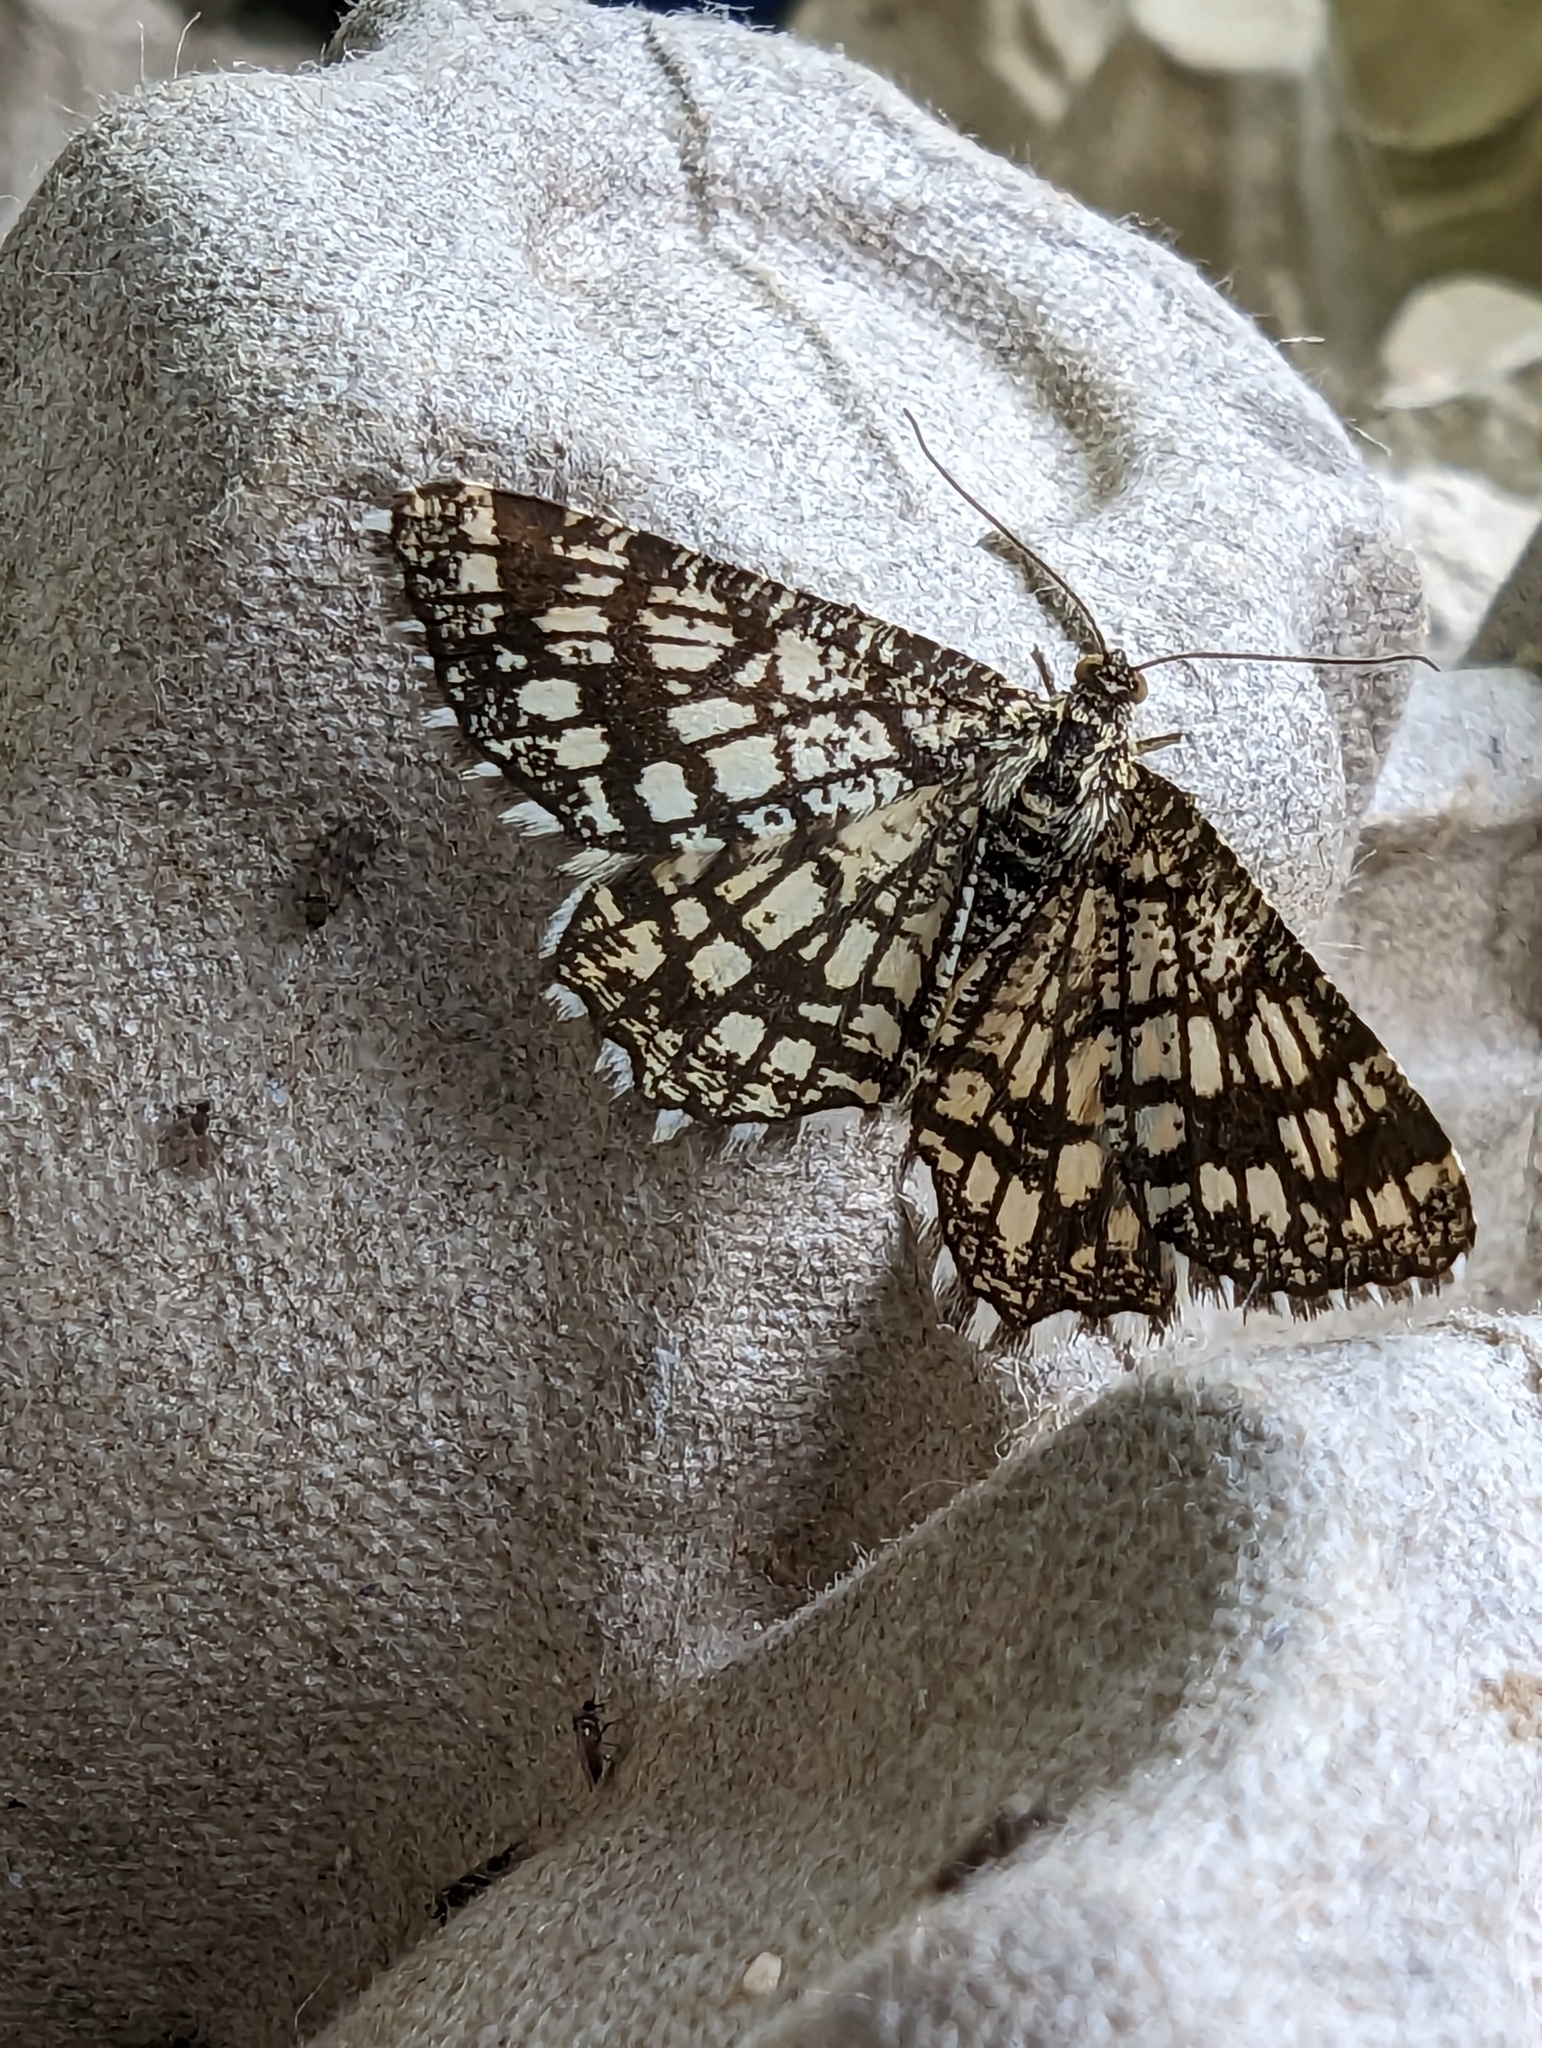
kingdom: Animalia
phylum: Arthropoda
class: Insecta
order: Lepidoptera
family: Geometridae
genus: Chiasmia
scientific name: Chiasmia clathrata
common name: Latticed heath
